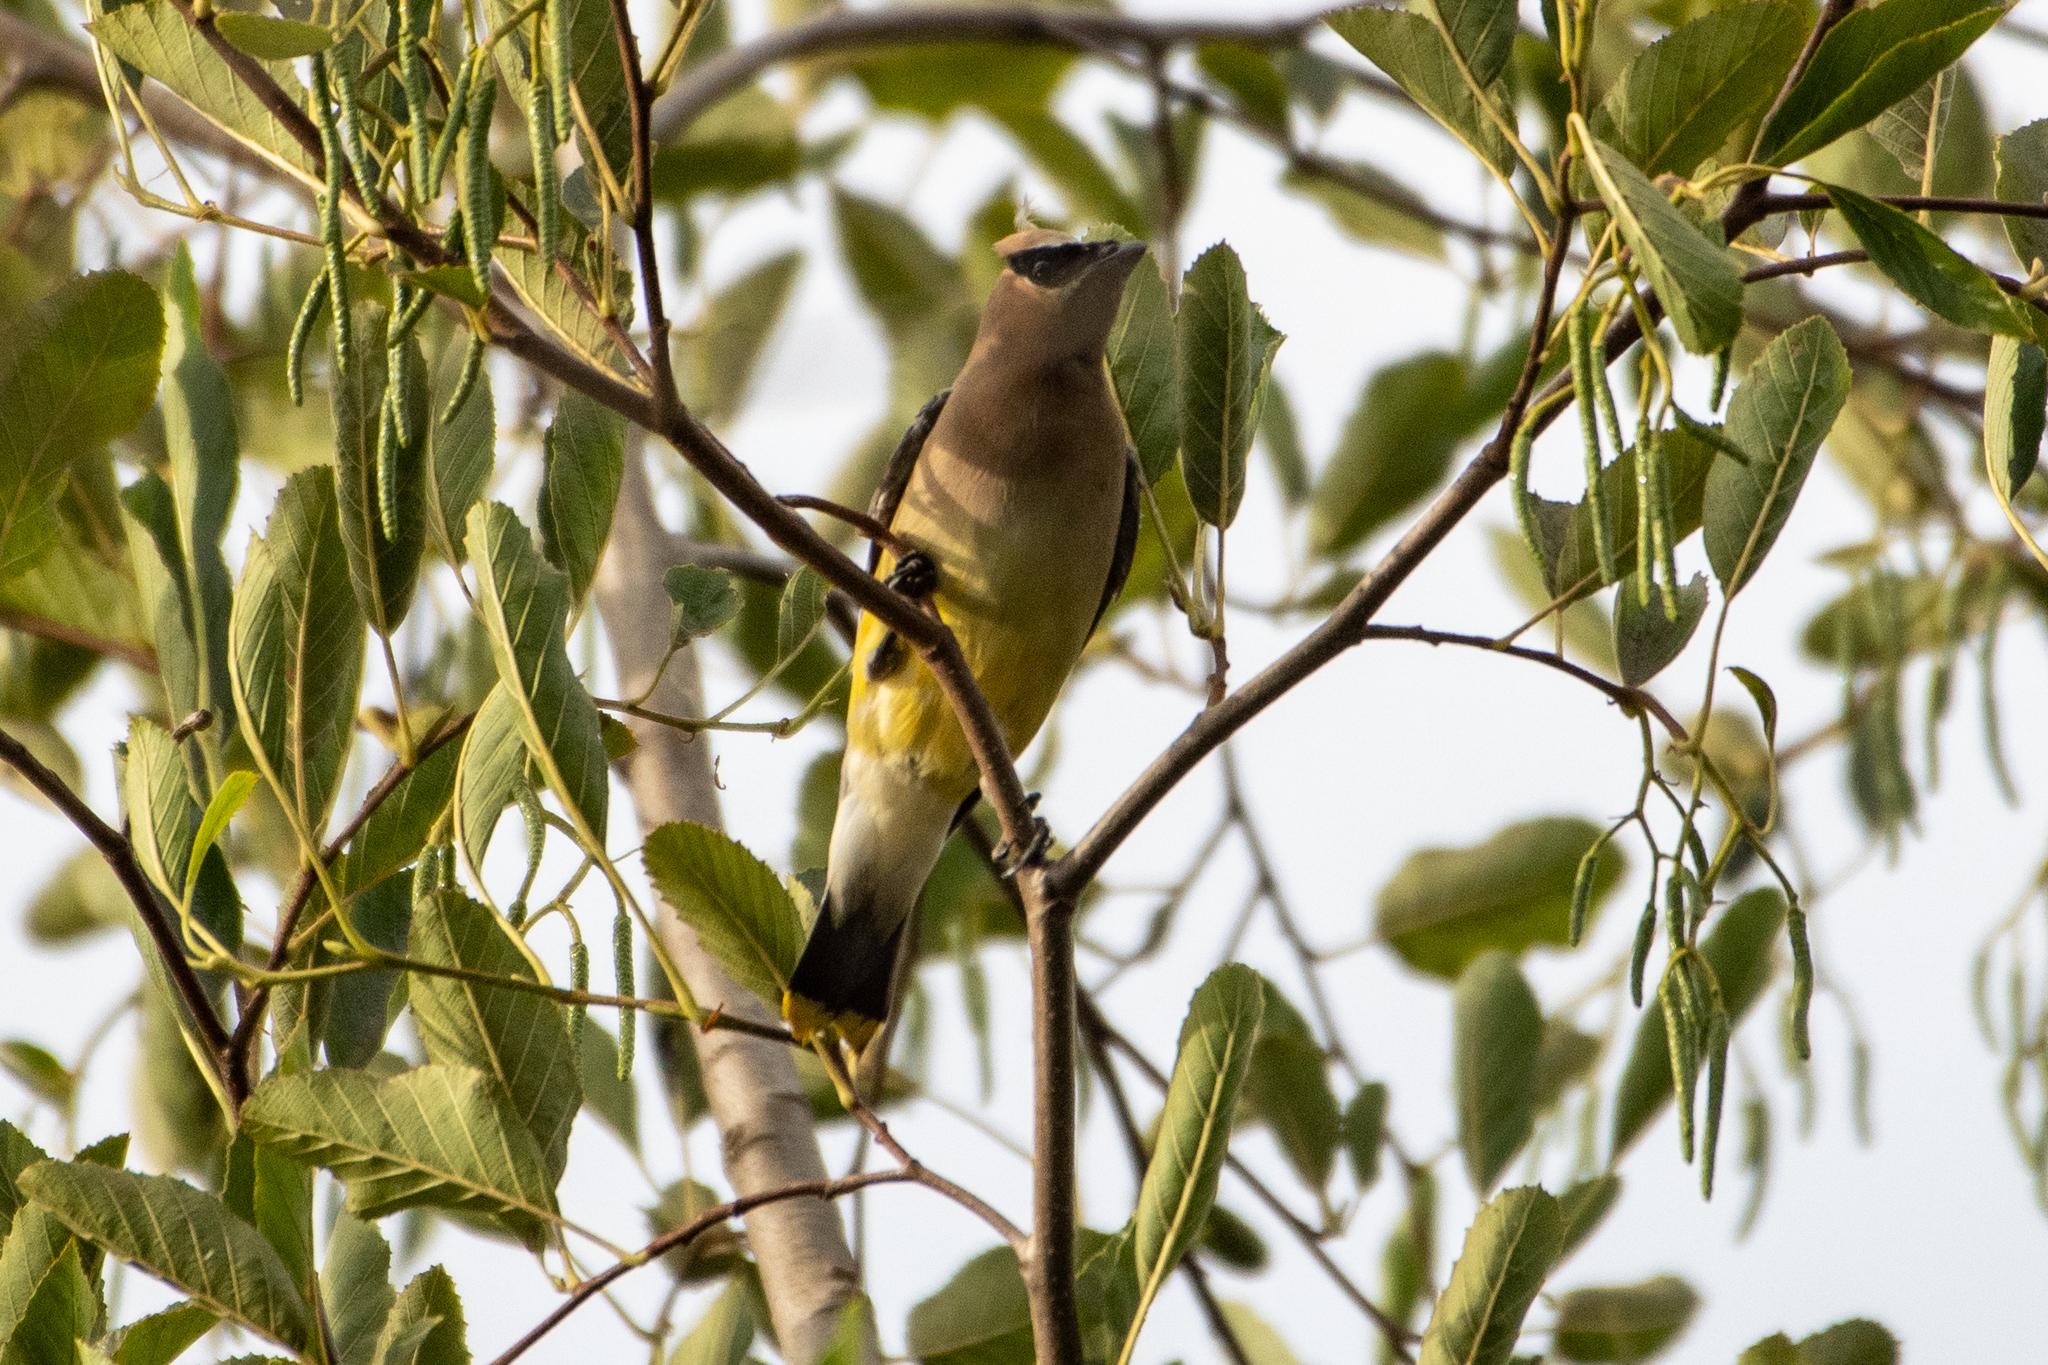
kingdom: Animalia
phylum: Chordata
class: Aves
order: Passeriformes
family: Bombycillidae
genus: Bombycilla
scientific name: Bombycilla cedrorum
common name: Cedar waxwing
